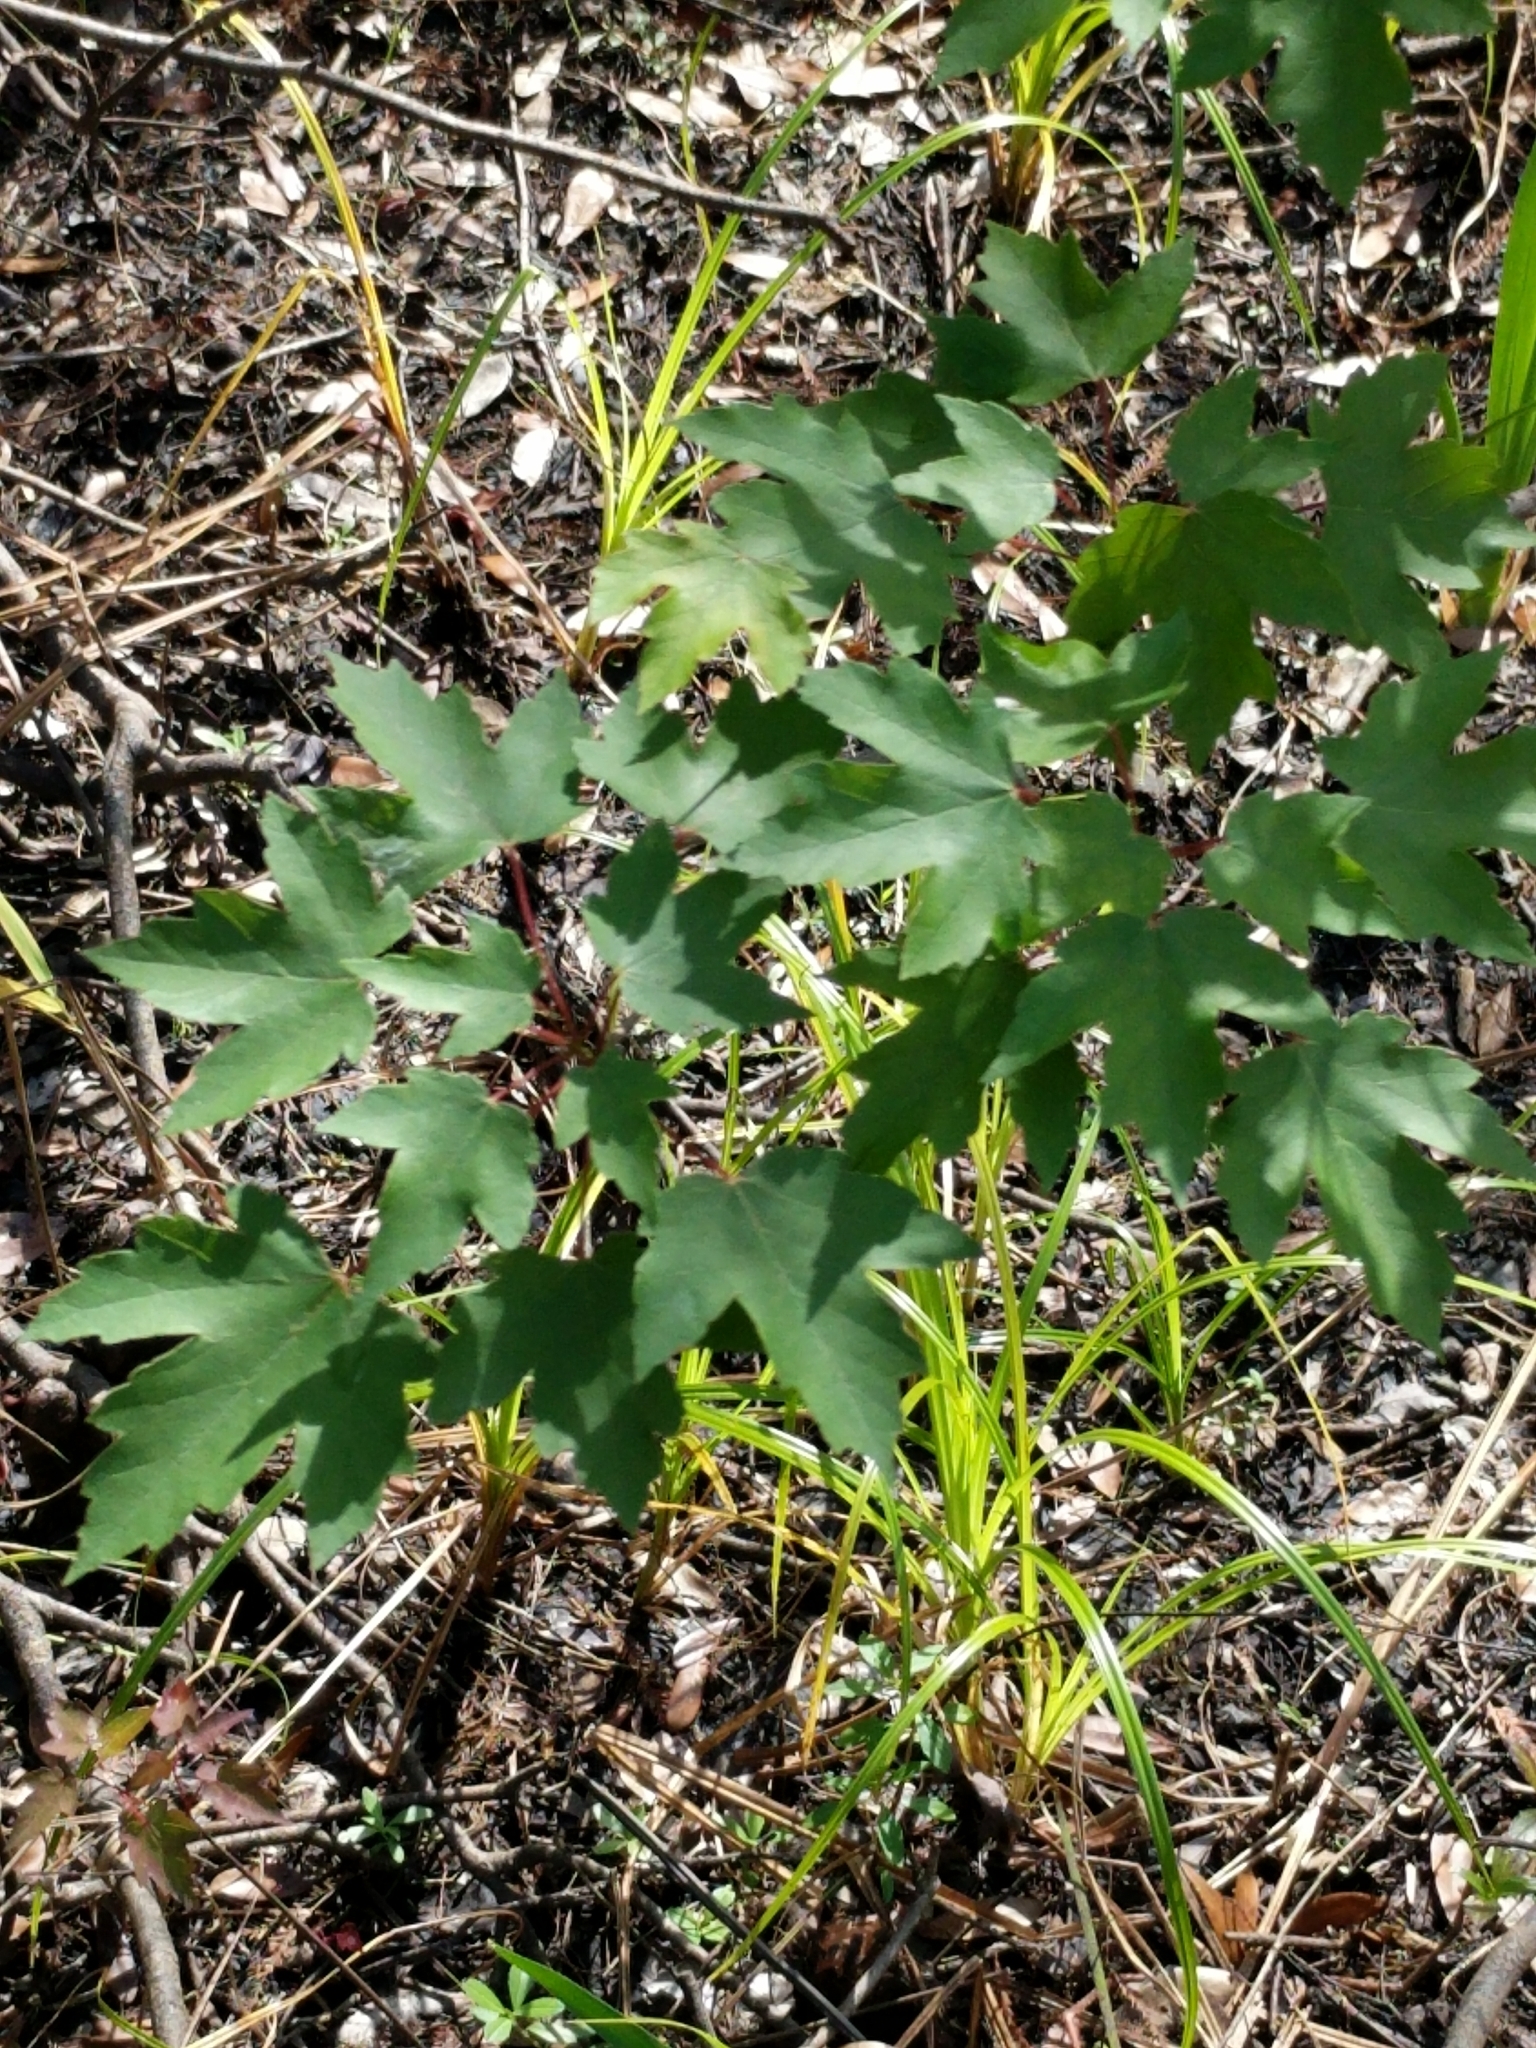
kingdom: Plantae
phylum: Tracheophyta
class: Magnoliopsida
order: Sapindales
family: Sapindaceae
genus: Acer
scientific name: Acer rubrum
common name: Red maple
